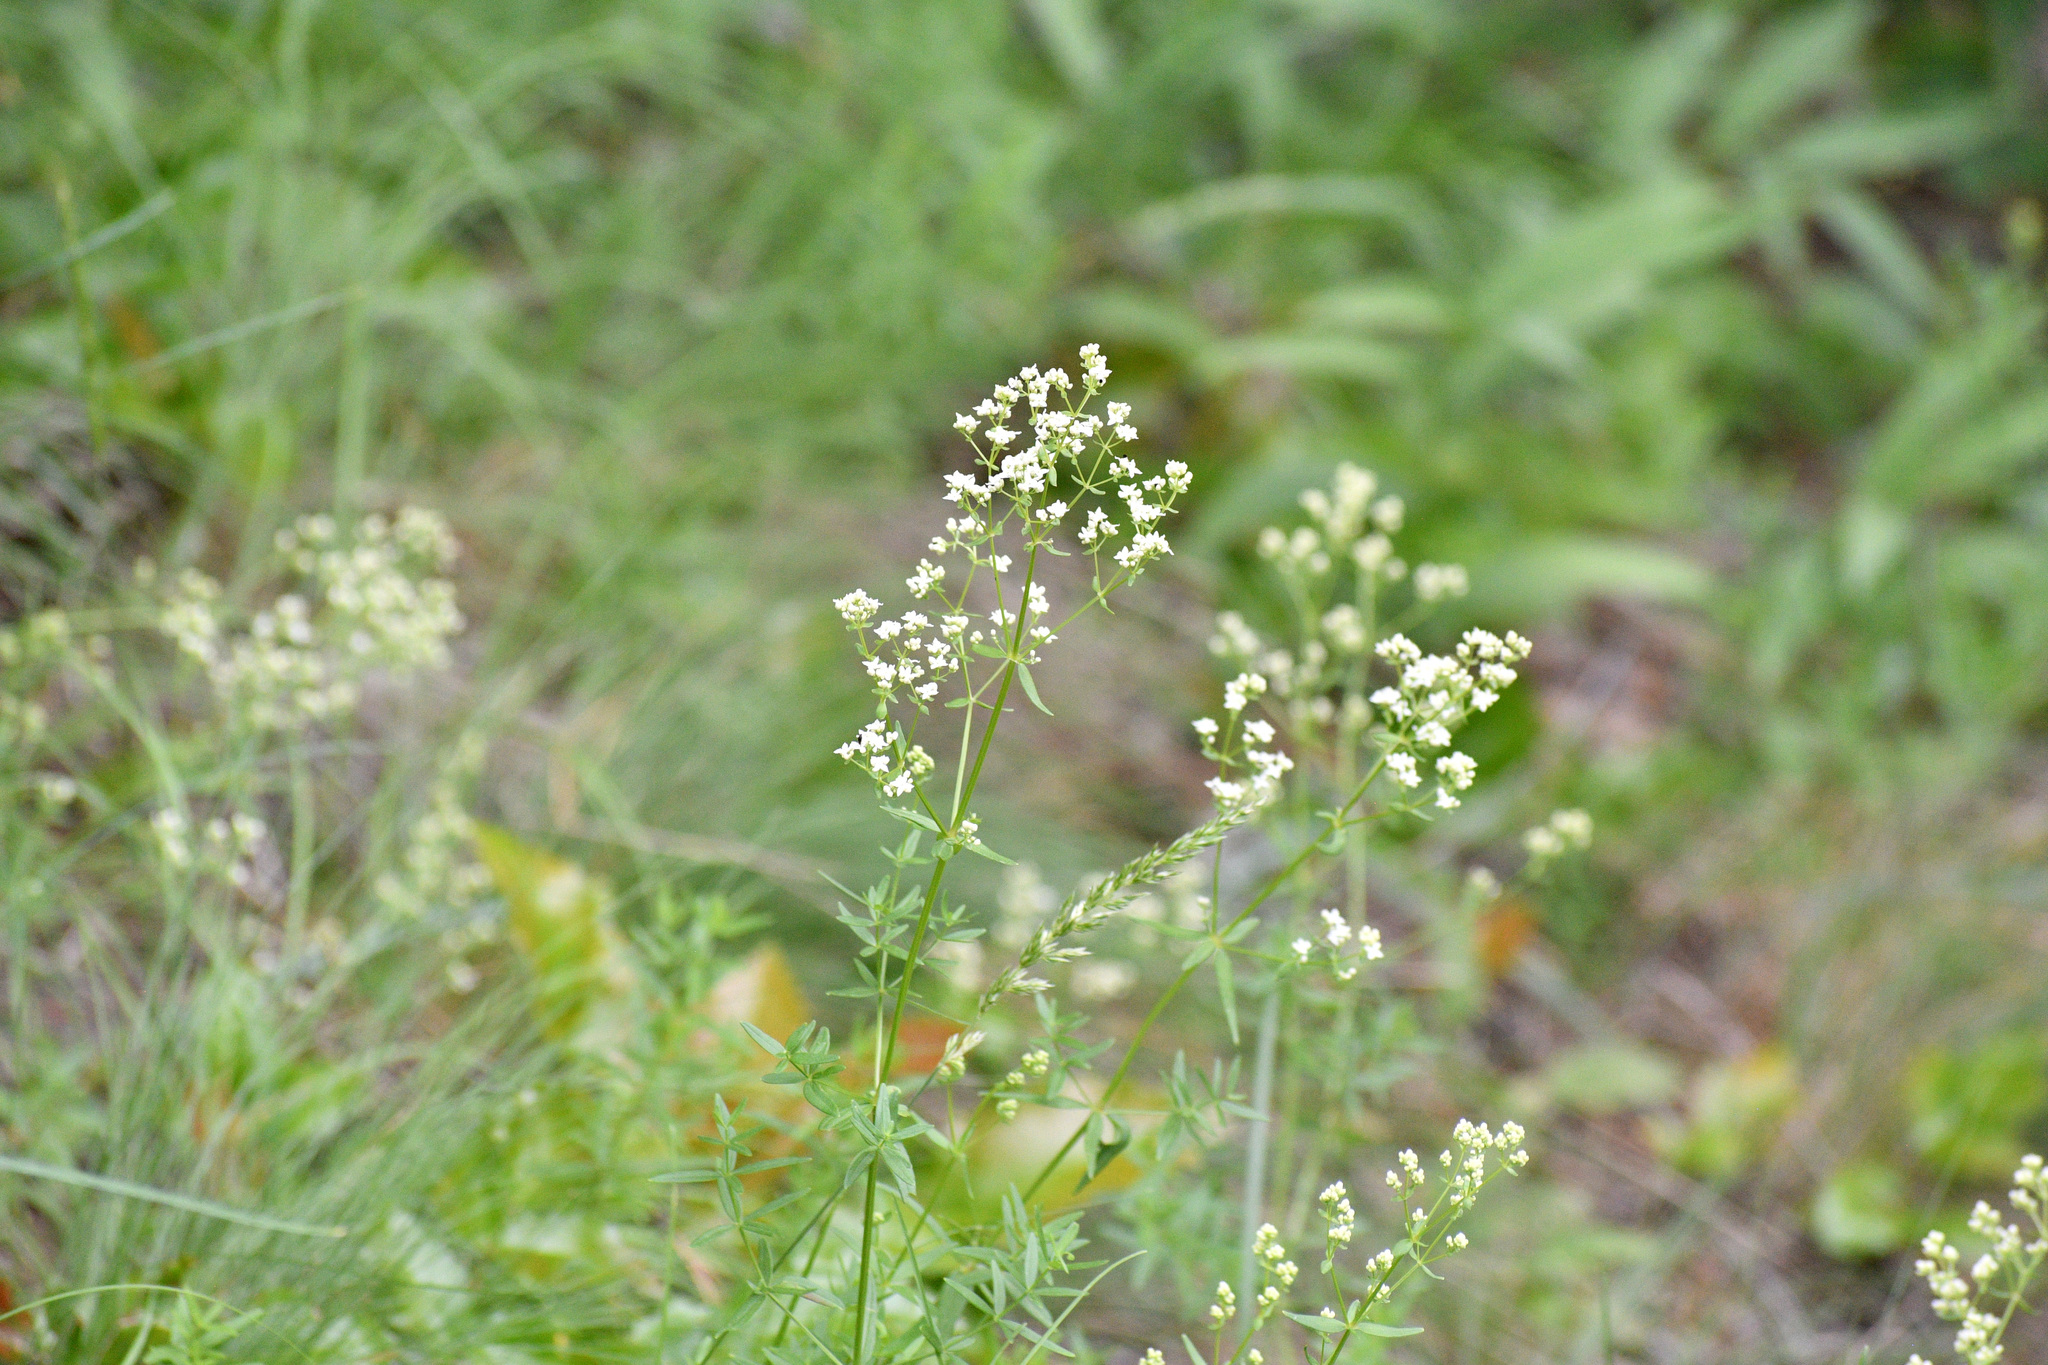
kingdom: Plantae
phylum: Tracheophyta
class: Magnoliopsida
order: Gentianales
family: Rubiaceae
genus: Galium
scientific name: Galium boreale
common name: Northern bedstraw
